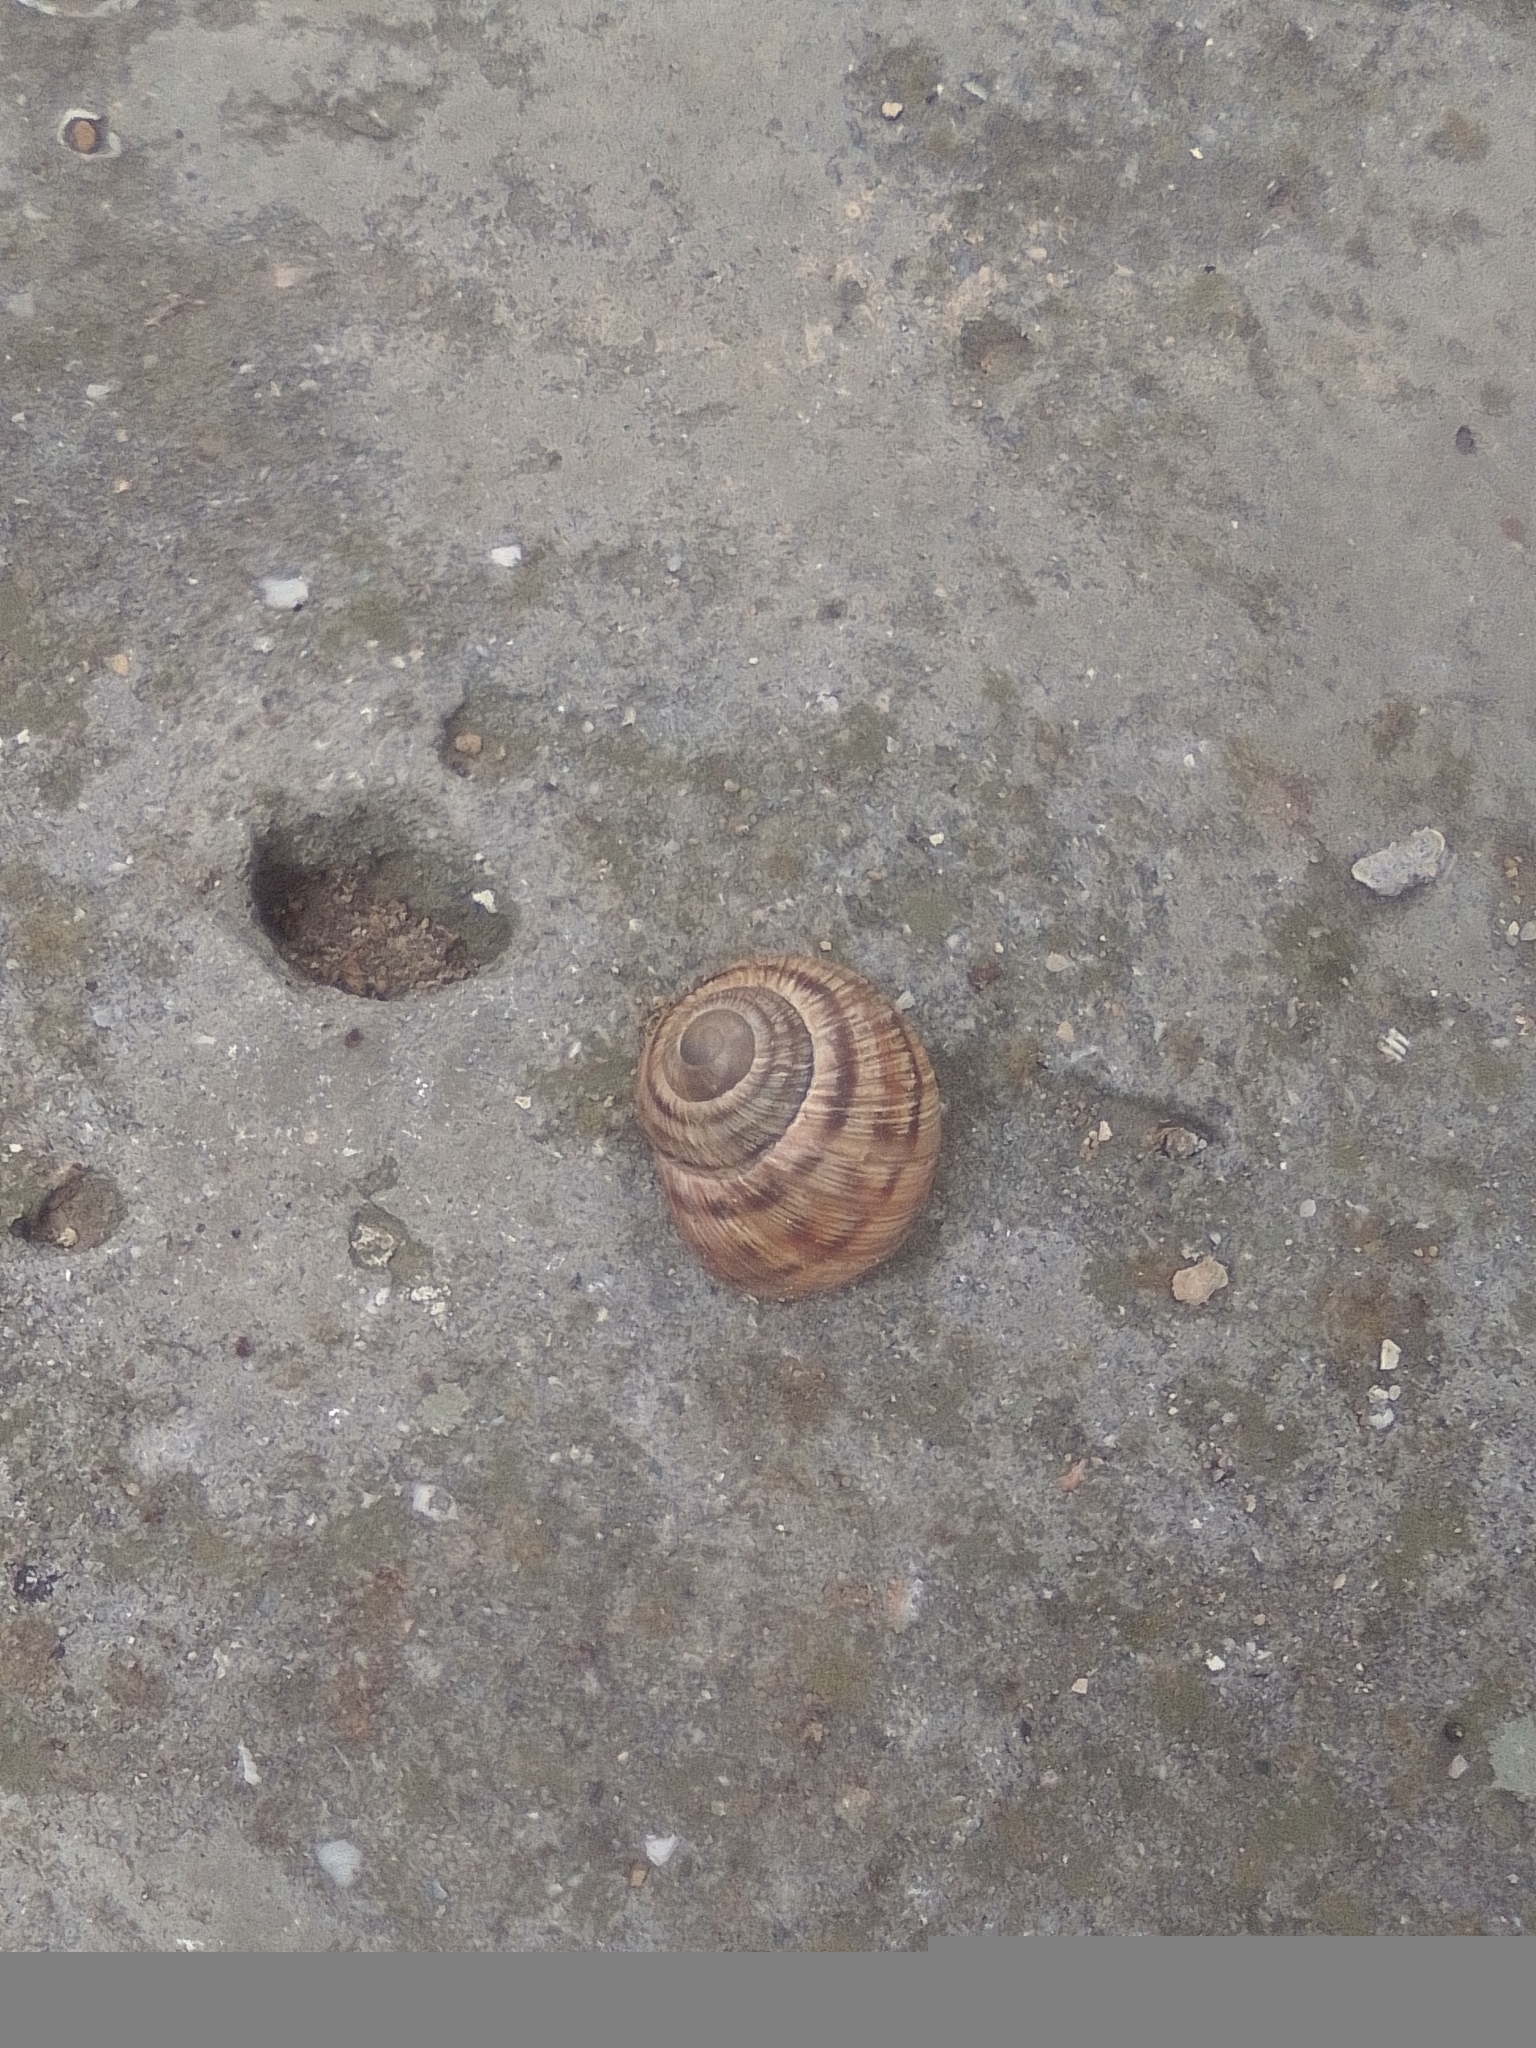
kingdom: Animalia
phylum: Mollusca
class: Gastropoda
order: Stylommatophora
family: Helicidae
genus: Helix
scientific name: Helix albescens
